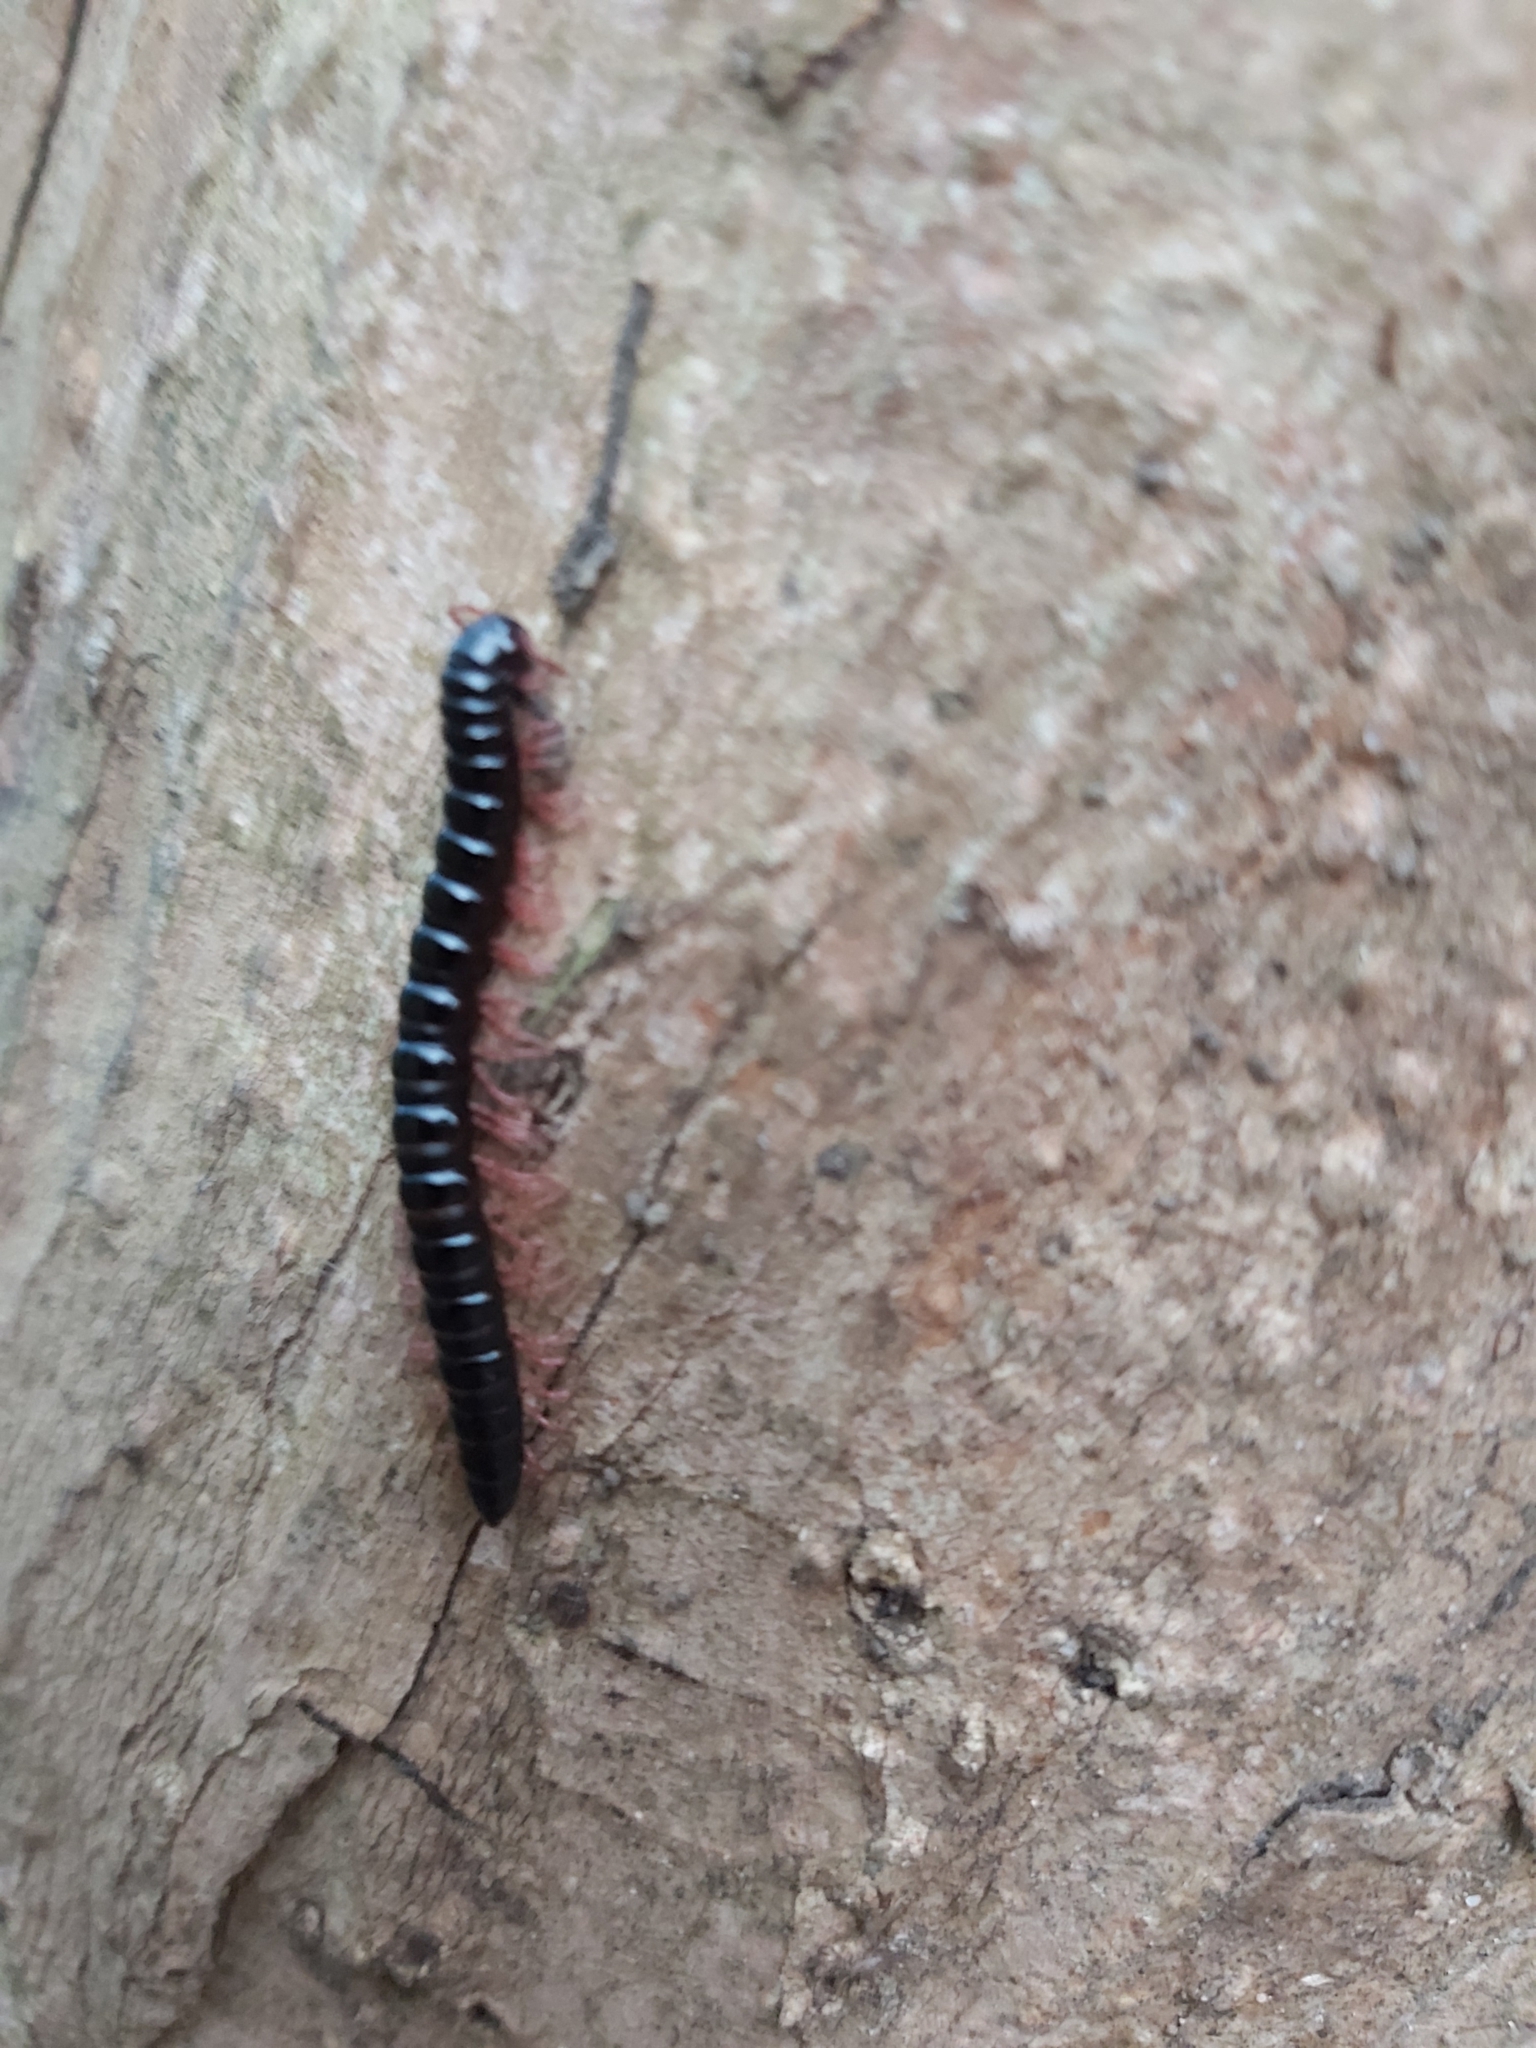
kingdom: Animalia
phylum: Arthropoda
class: Diplopoda
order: Polydesmida
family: Paradoxosomatidae
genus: Heterocladosoma
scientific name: Heterocladosoma
